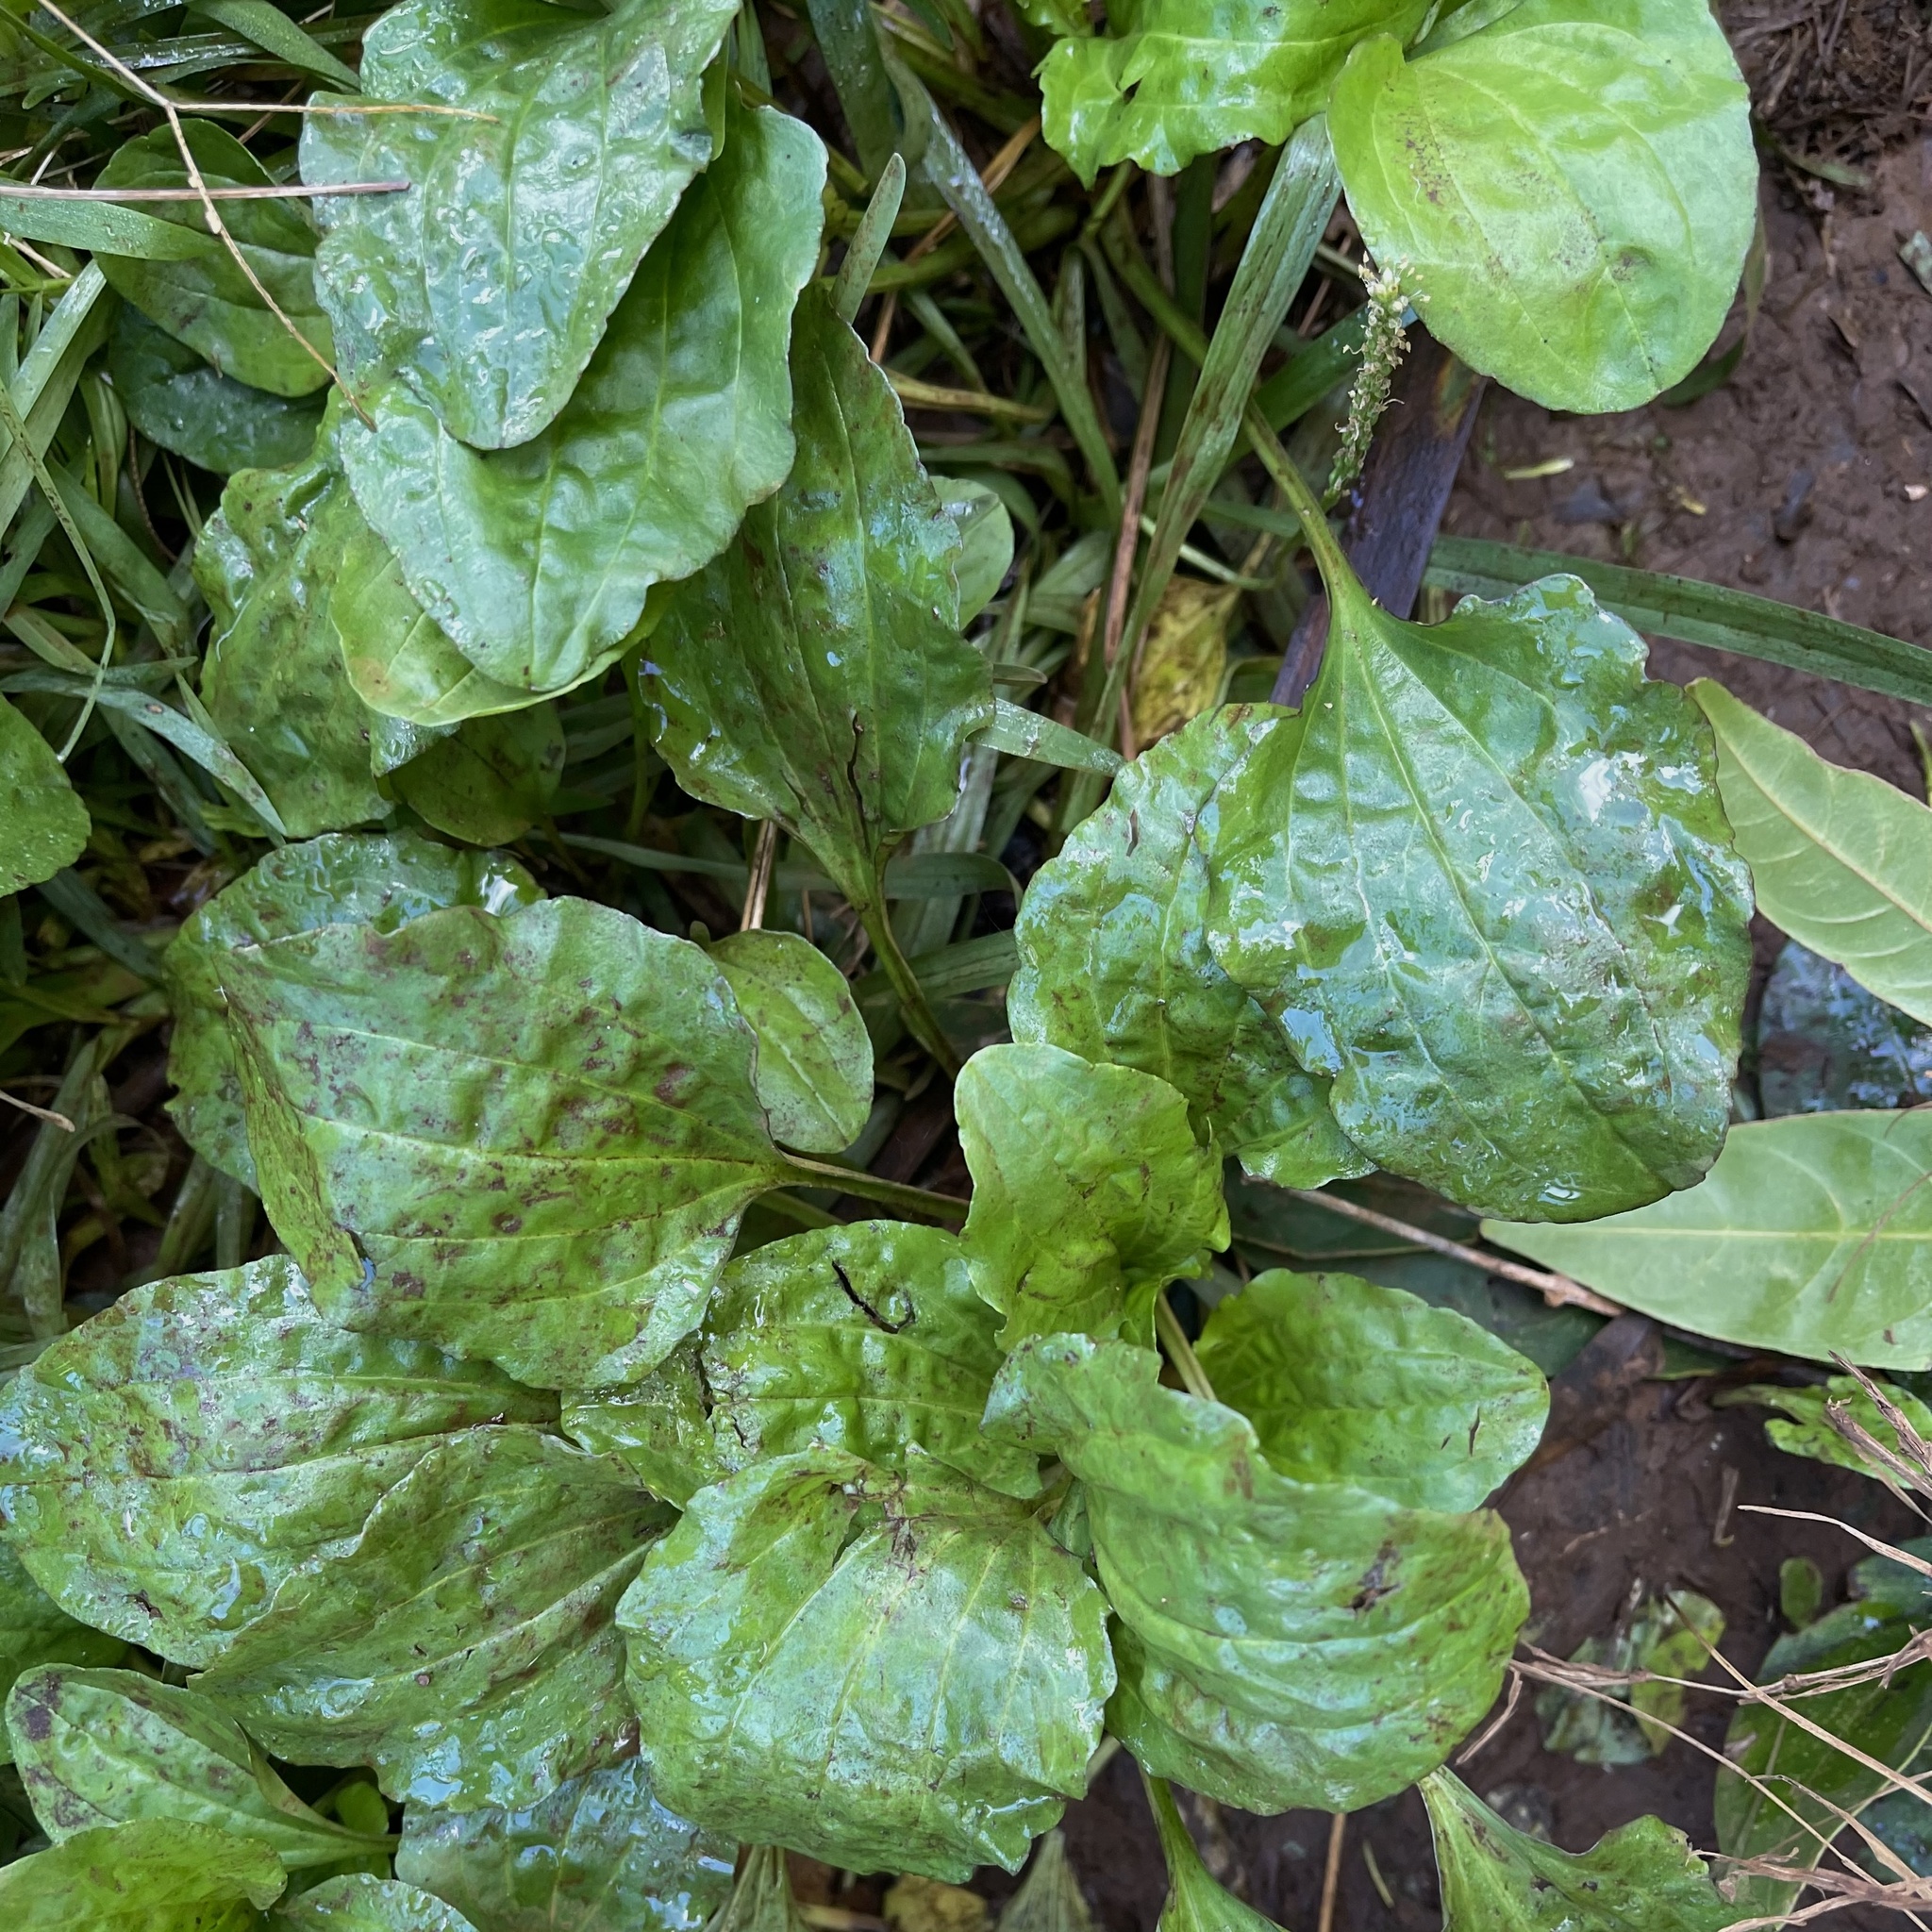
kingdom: Plantae
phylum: Tracheophyta
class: Magnoliopsida
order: Lamiales
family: Plantaginaceae
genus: Plantago
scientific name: Plantago major
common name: Common plantain
